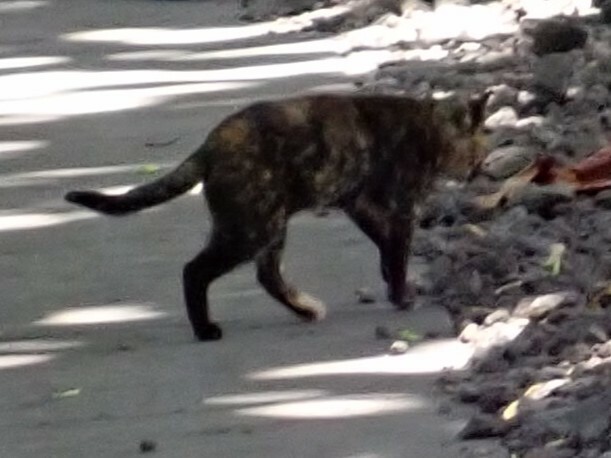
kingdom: Animalia
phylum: Chordata
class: Mammalia
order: Carnivora
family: Felidae
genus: Felis
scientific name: Felis catus
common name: Domestic cat
